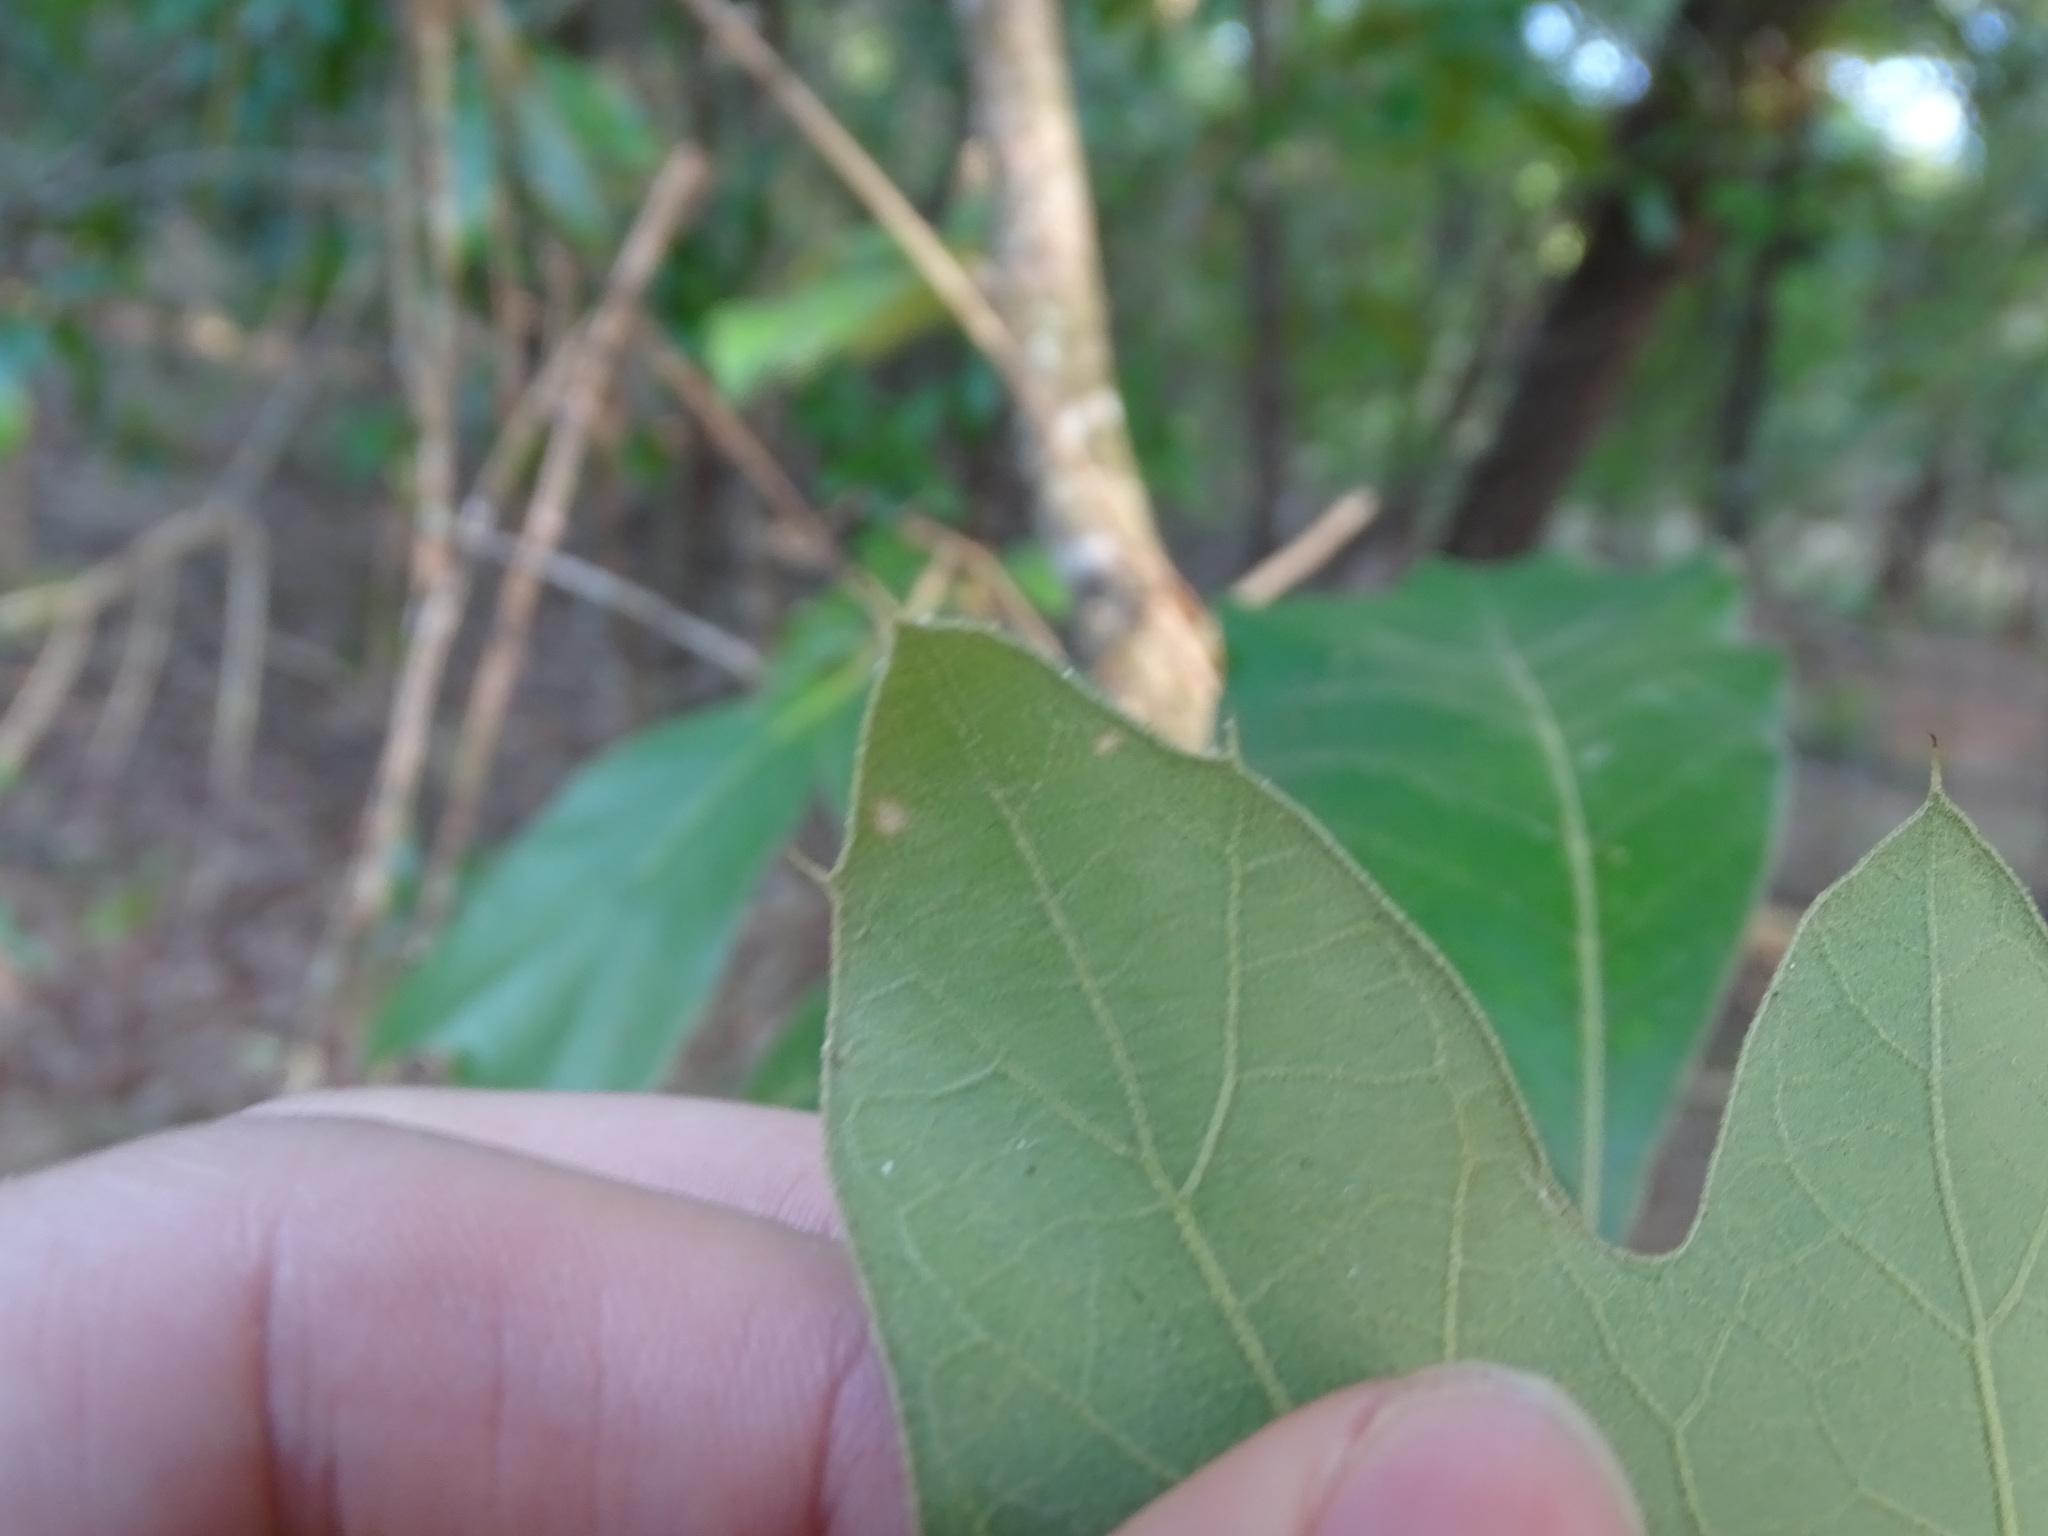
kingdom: Plantae
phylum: Tracheophyta
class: Magnoliopsida
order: Fagales
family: Fagaceae
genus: Quercus
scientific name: Quercus falcata
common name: Southern red oak
